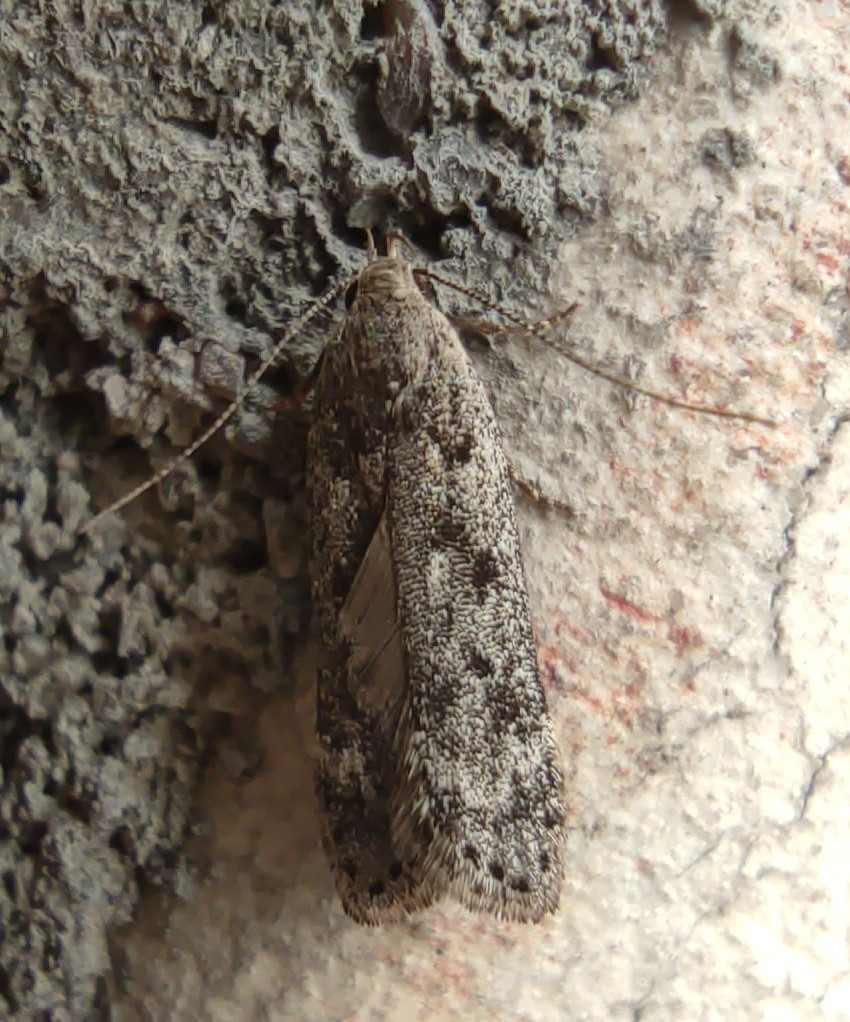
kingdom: Animalia
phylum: Arthropoda
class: Insecta
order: Lepidoptera
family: Gelechiidae
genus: Anacampsis
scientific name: Anacampsis populella
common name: Poplar leafroller
